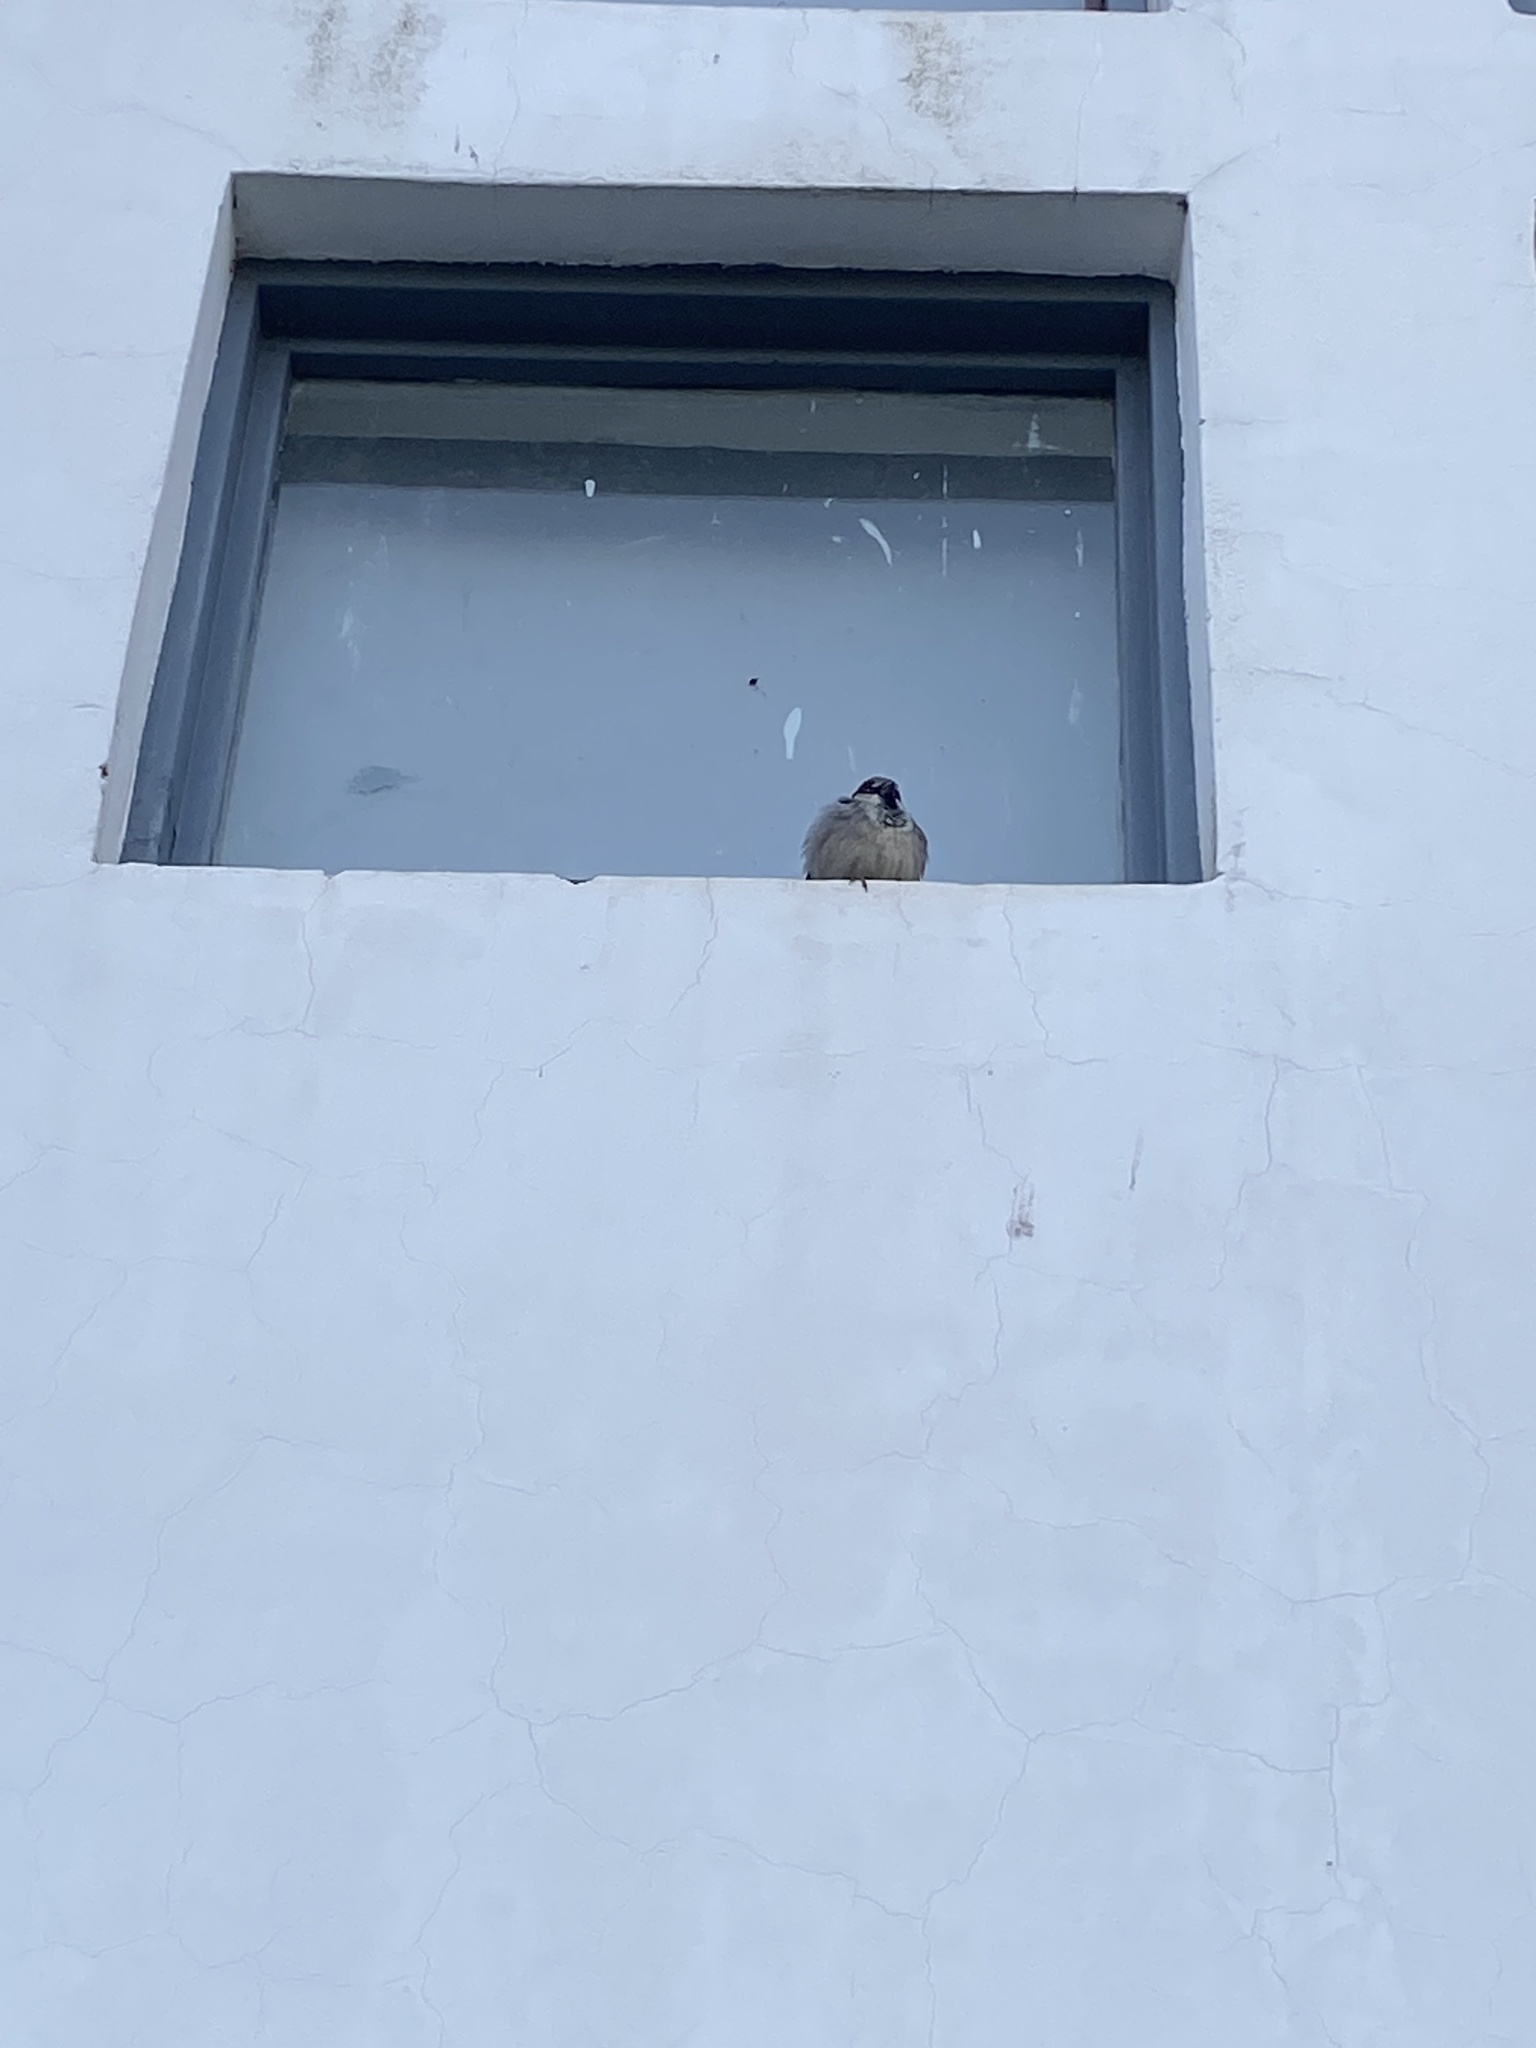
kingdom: Animalia
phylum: Chordata
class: Aves
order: Passeriformes
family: Passeridae
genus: Passer
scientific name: Passer domesticus
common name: House sparrow
